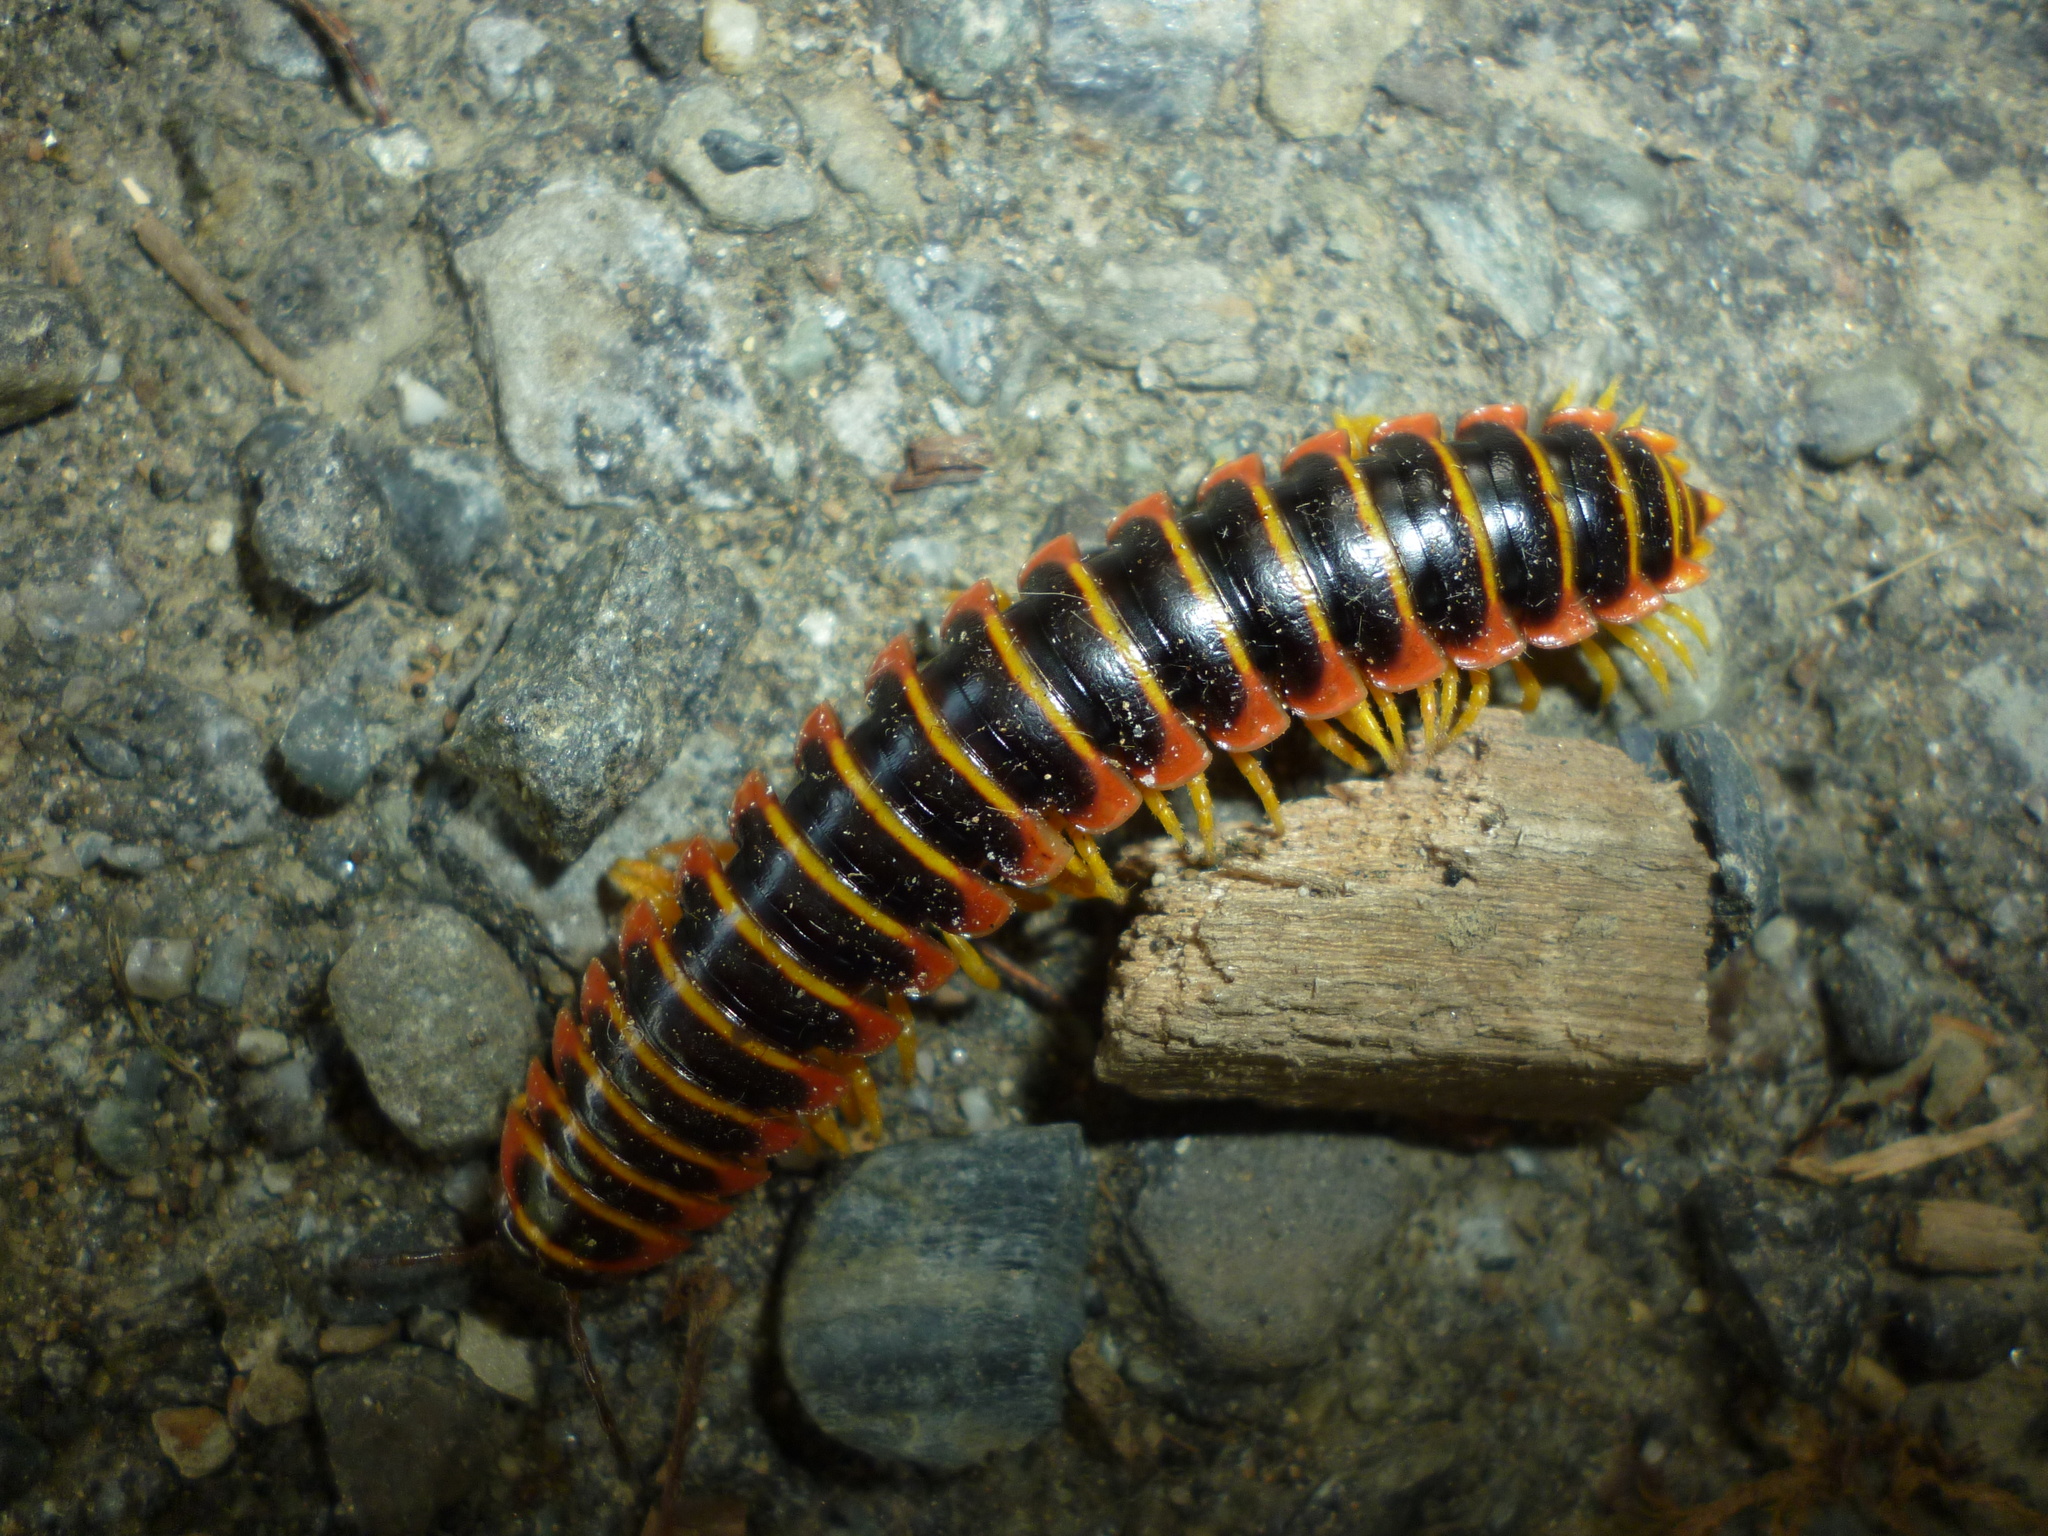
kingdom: Animalia
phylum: Arthropoda
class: Diplopoda
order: Polydesmida
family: Xystodesmidae
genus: Apheloria
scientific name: Apheloria virginiensis
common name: Black-and-gold flat millipede
